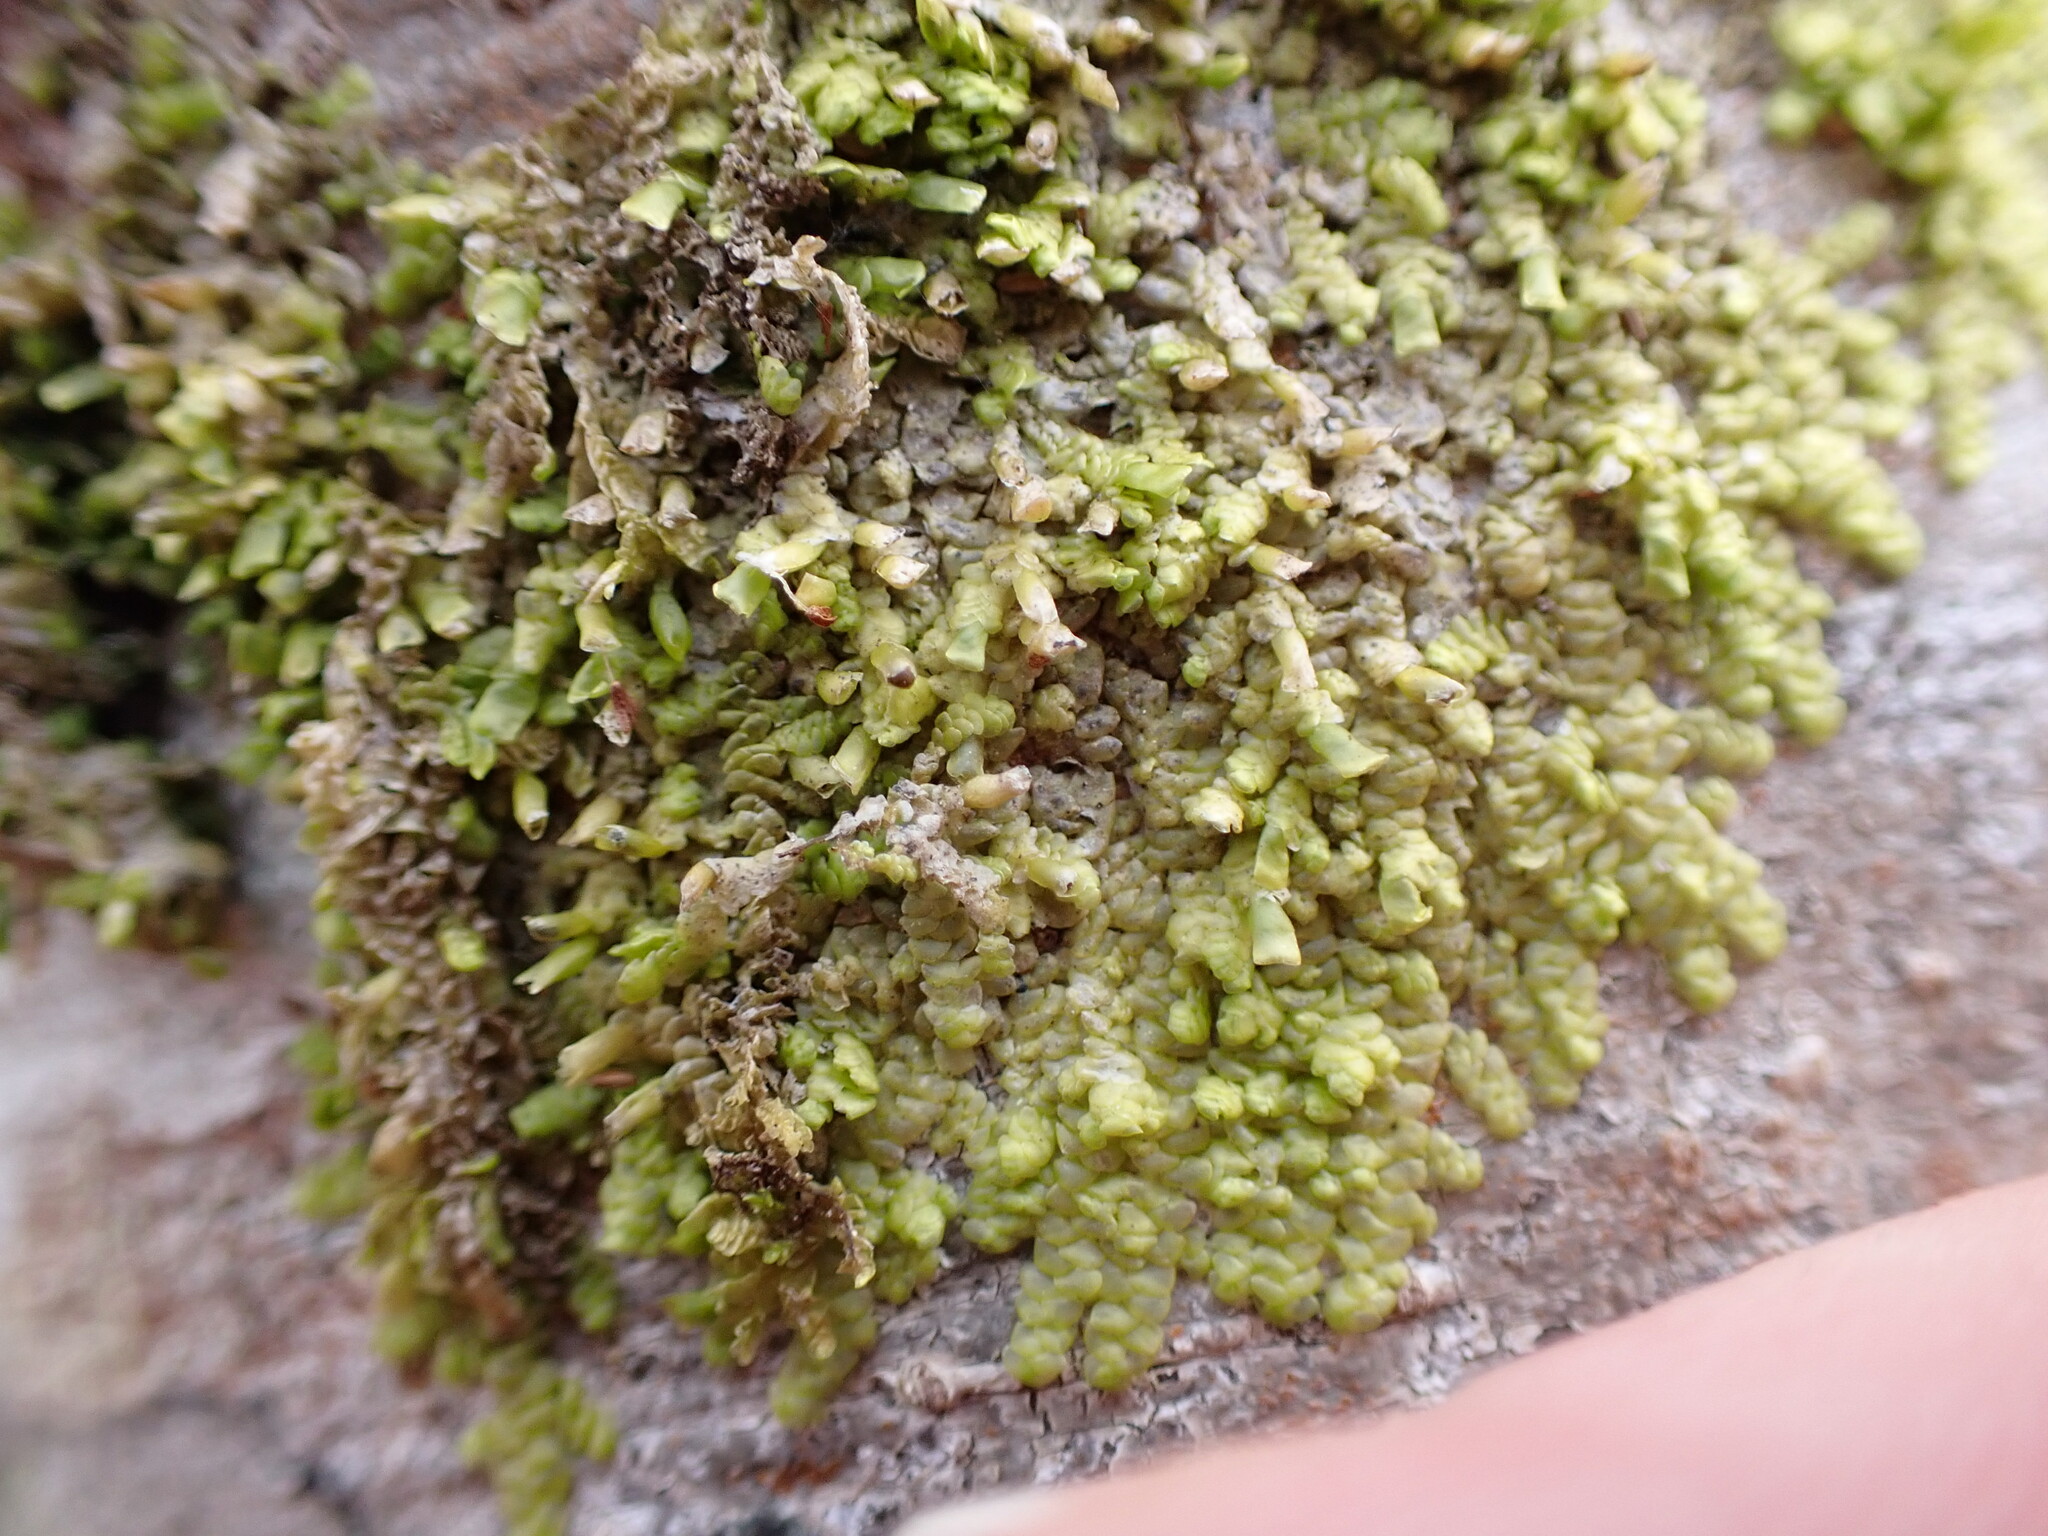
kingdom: Plantae
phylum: Marchantiophyta
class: Jungermanniopsida
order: Porellales
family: Radulaceae
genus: Radula
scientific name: Radula complanata
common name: Flat-leaved scalewort
